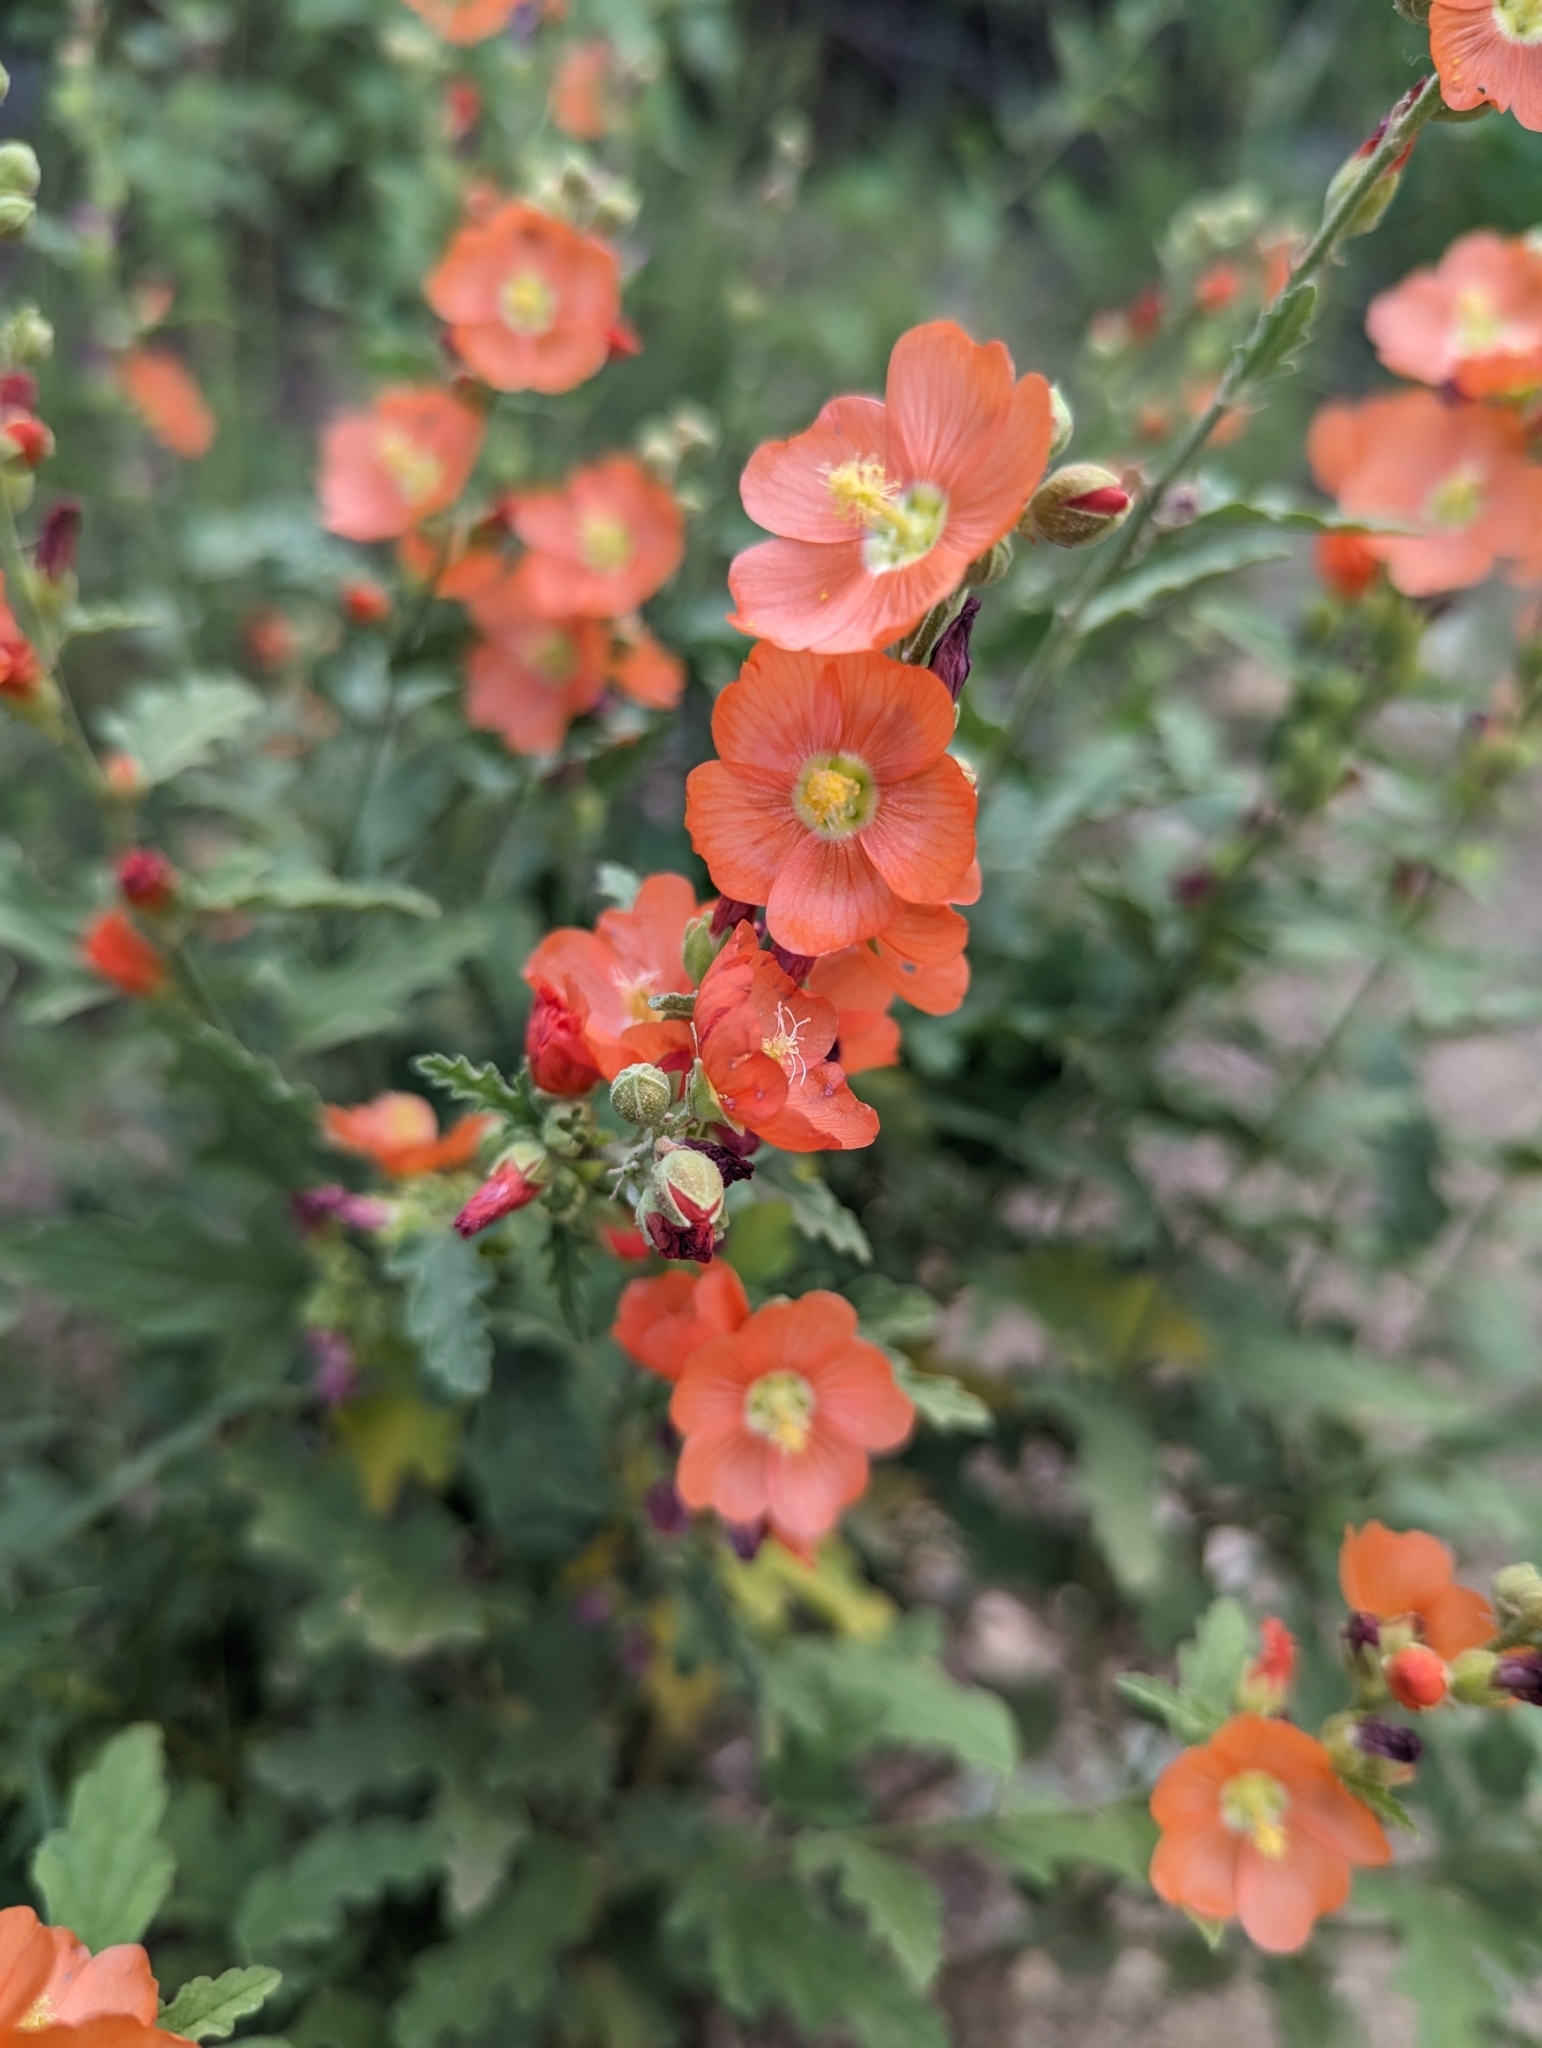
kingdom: Plantae
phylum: Tracheophyta
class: Magnoliopsida
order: Malvales
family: Malvaceae
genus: Sphaeralcea
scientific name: Sphaeralcea fendleri
